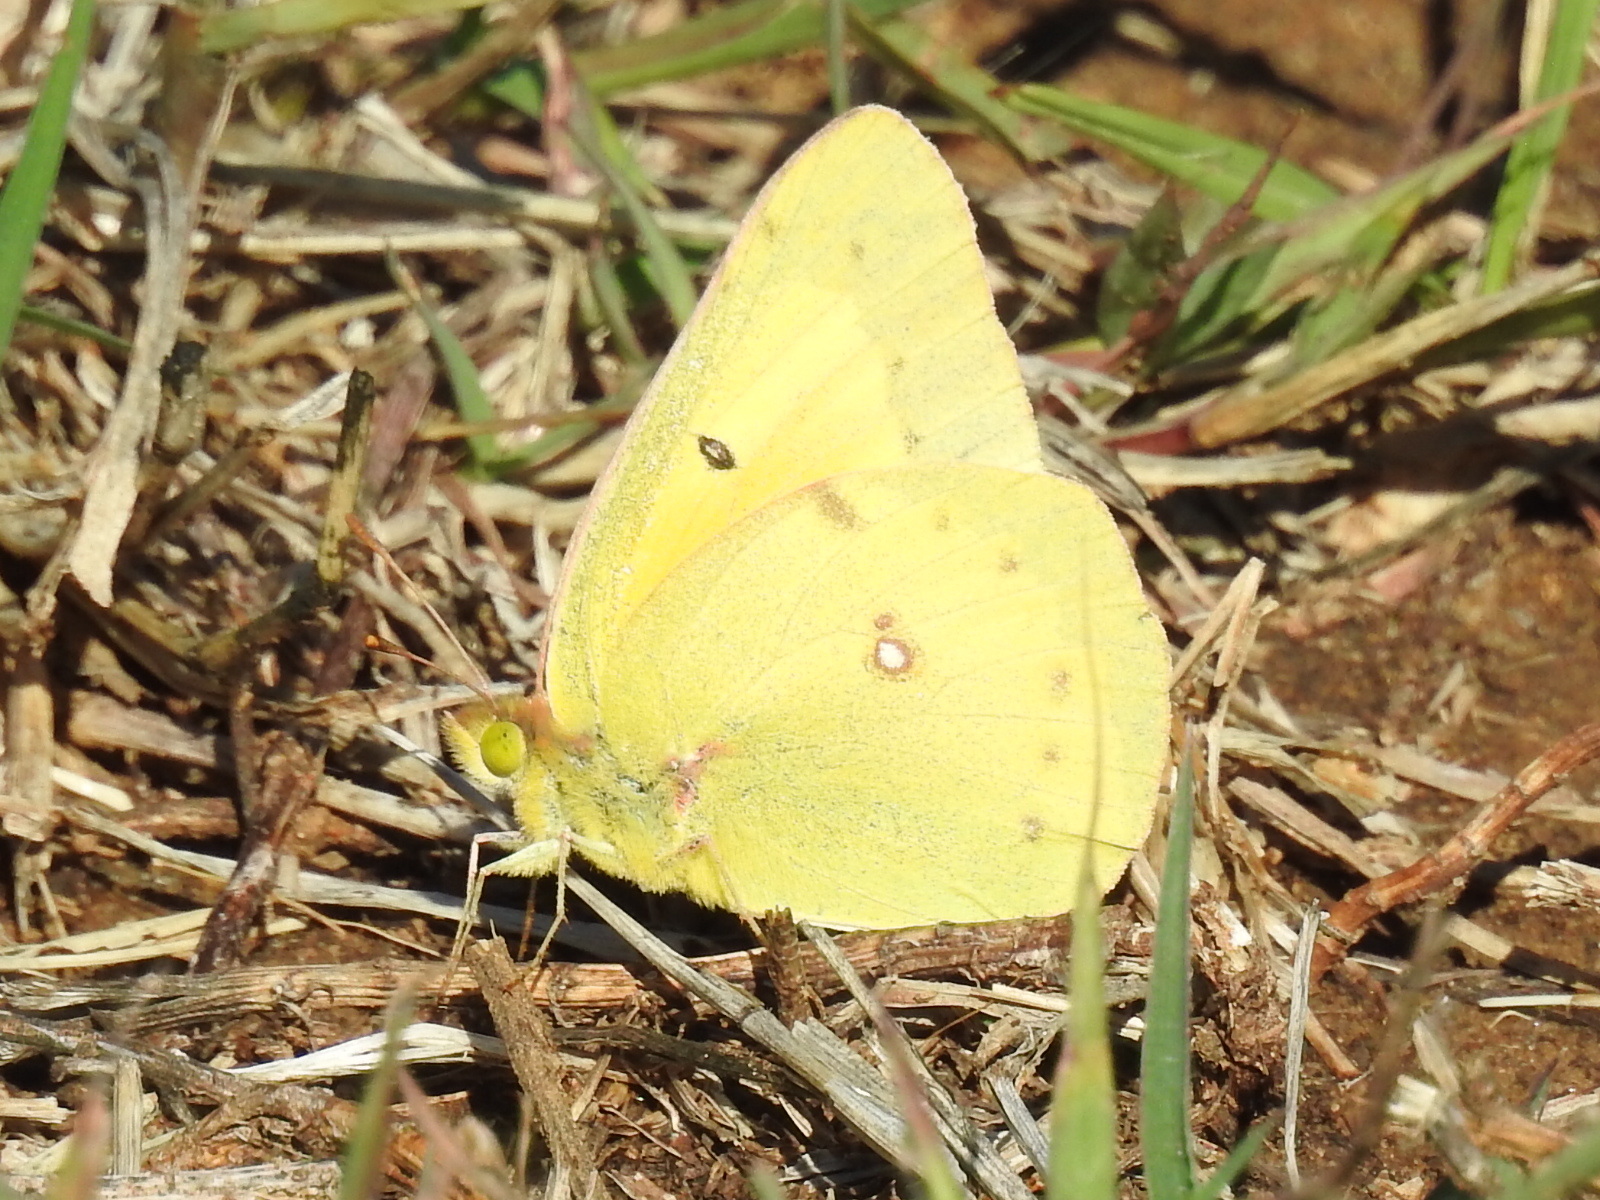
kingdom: Animalia
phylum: Arthropoda
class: Insecta
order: Lepidoptera
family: Pieridae
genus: Colias
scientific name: Colias eurytheme
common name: Alfalfa butterfly
